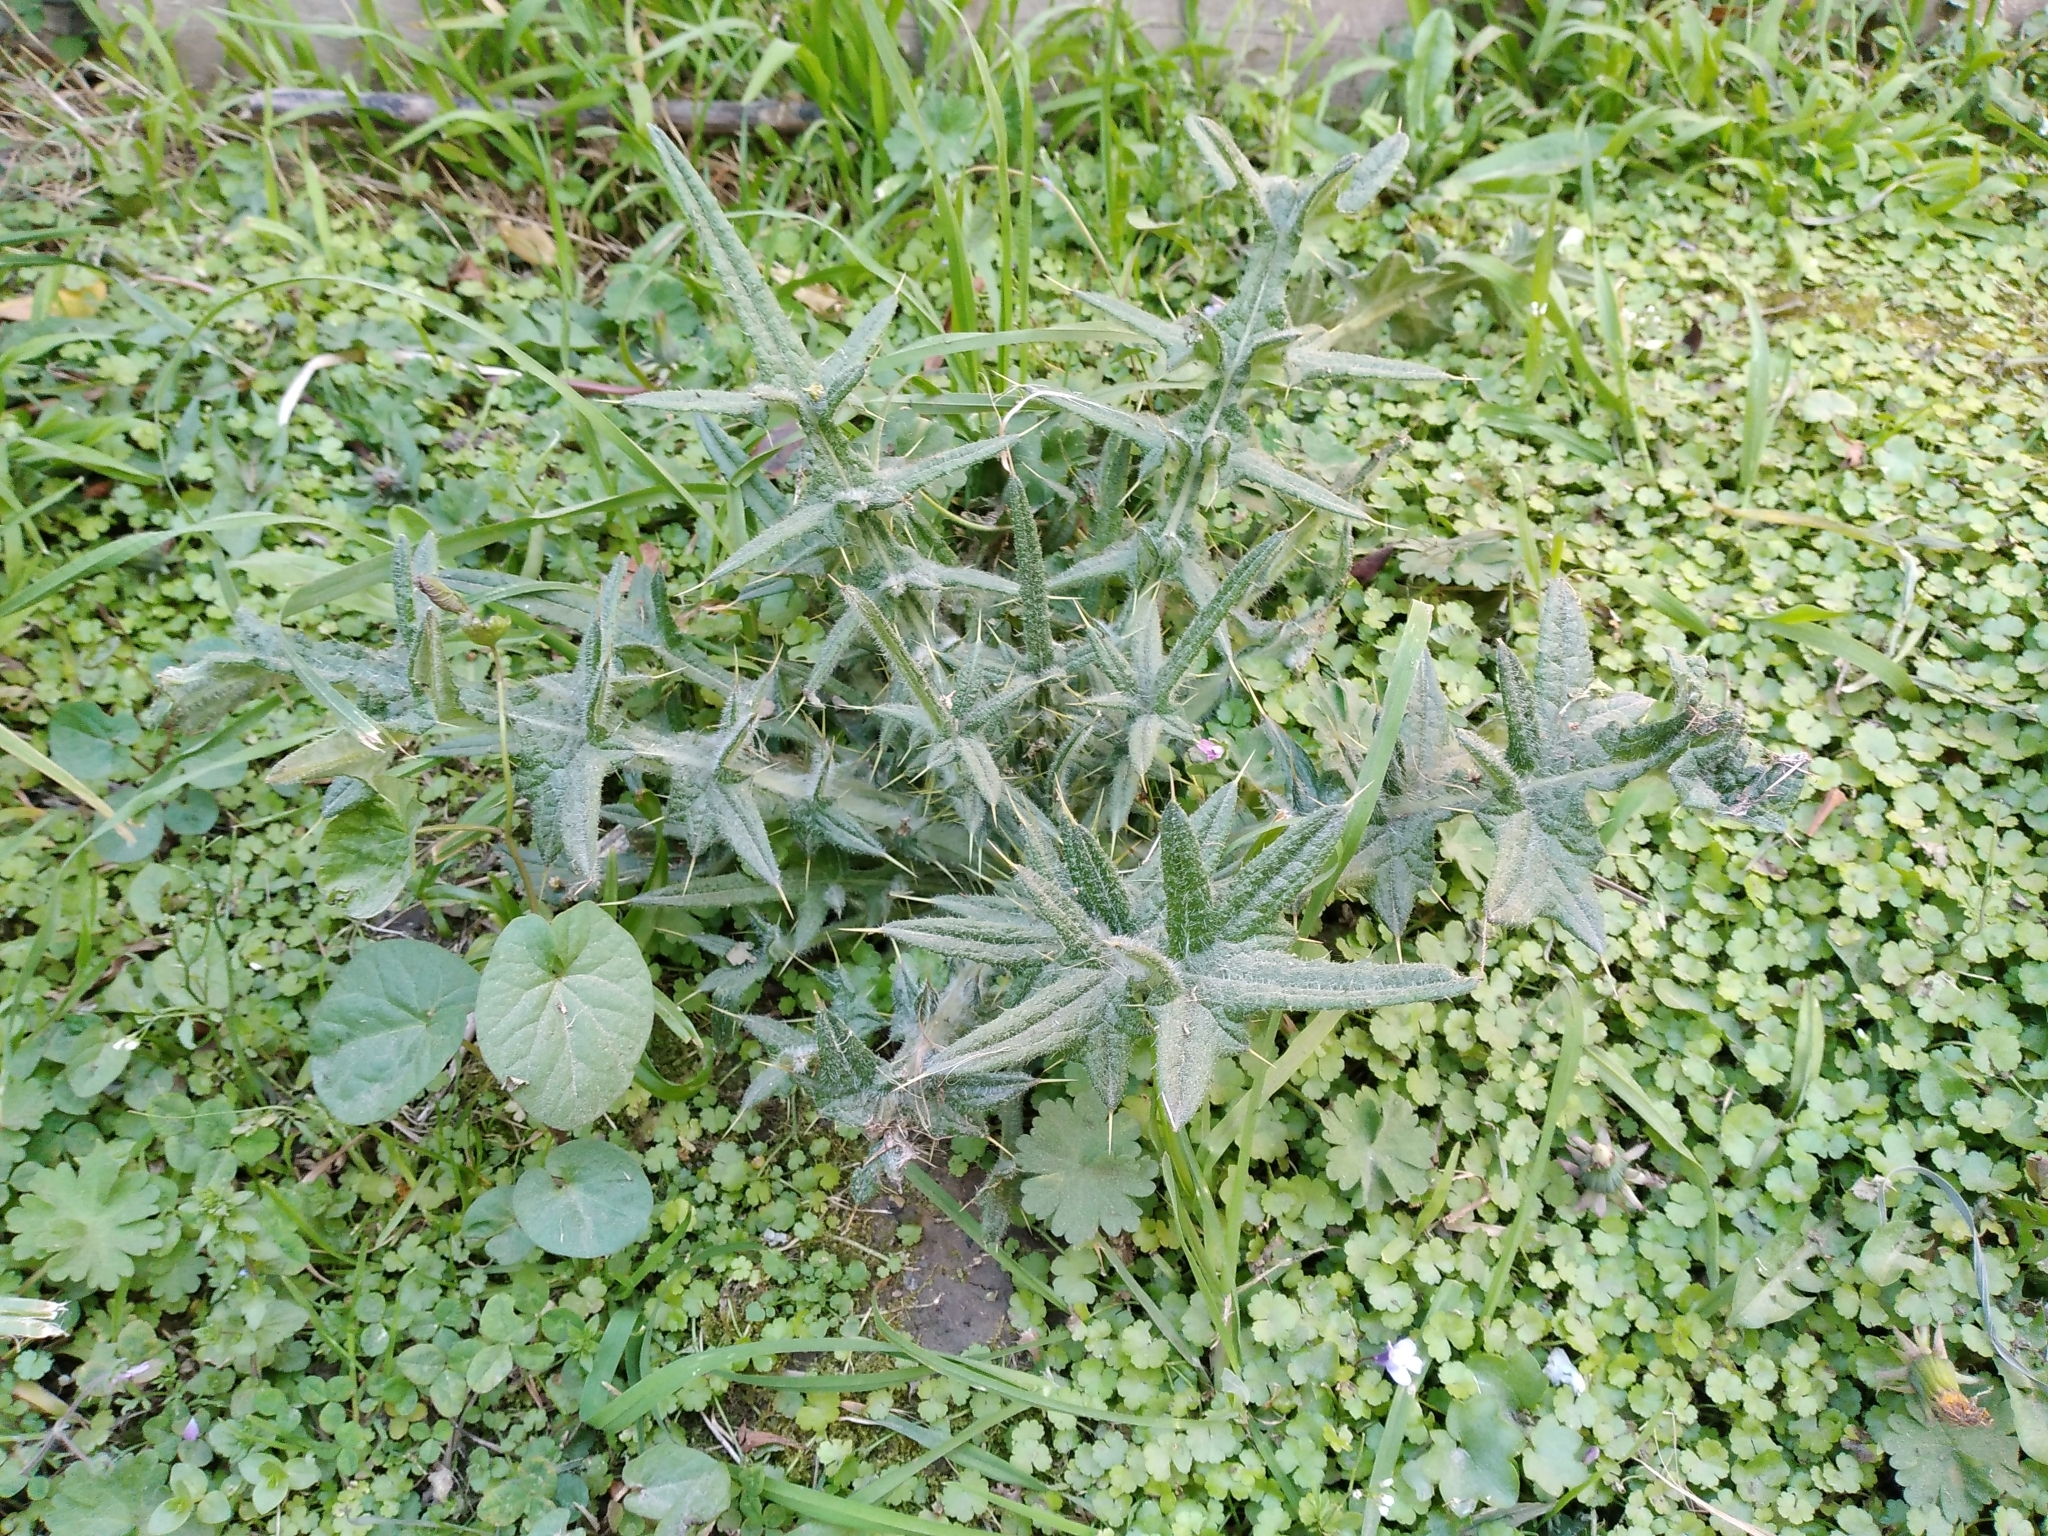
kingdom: Plantae
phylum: Tracheophyta
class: Magnoliopsida
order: Asterales
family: Asteraceae
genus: Cirsium
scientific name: Cirsium vulgare
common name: Bull thistle
